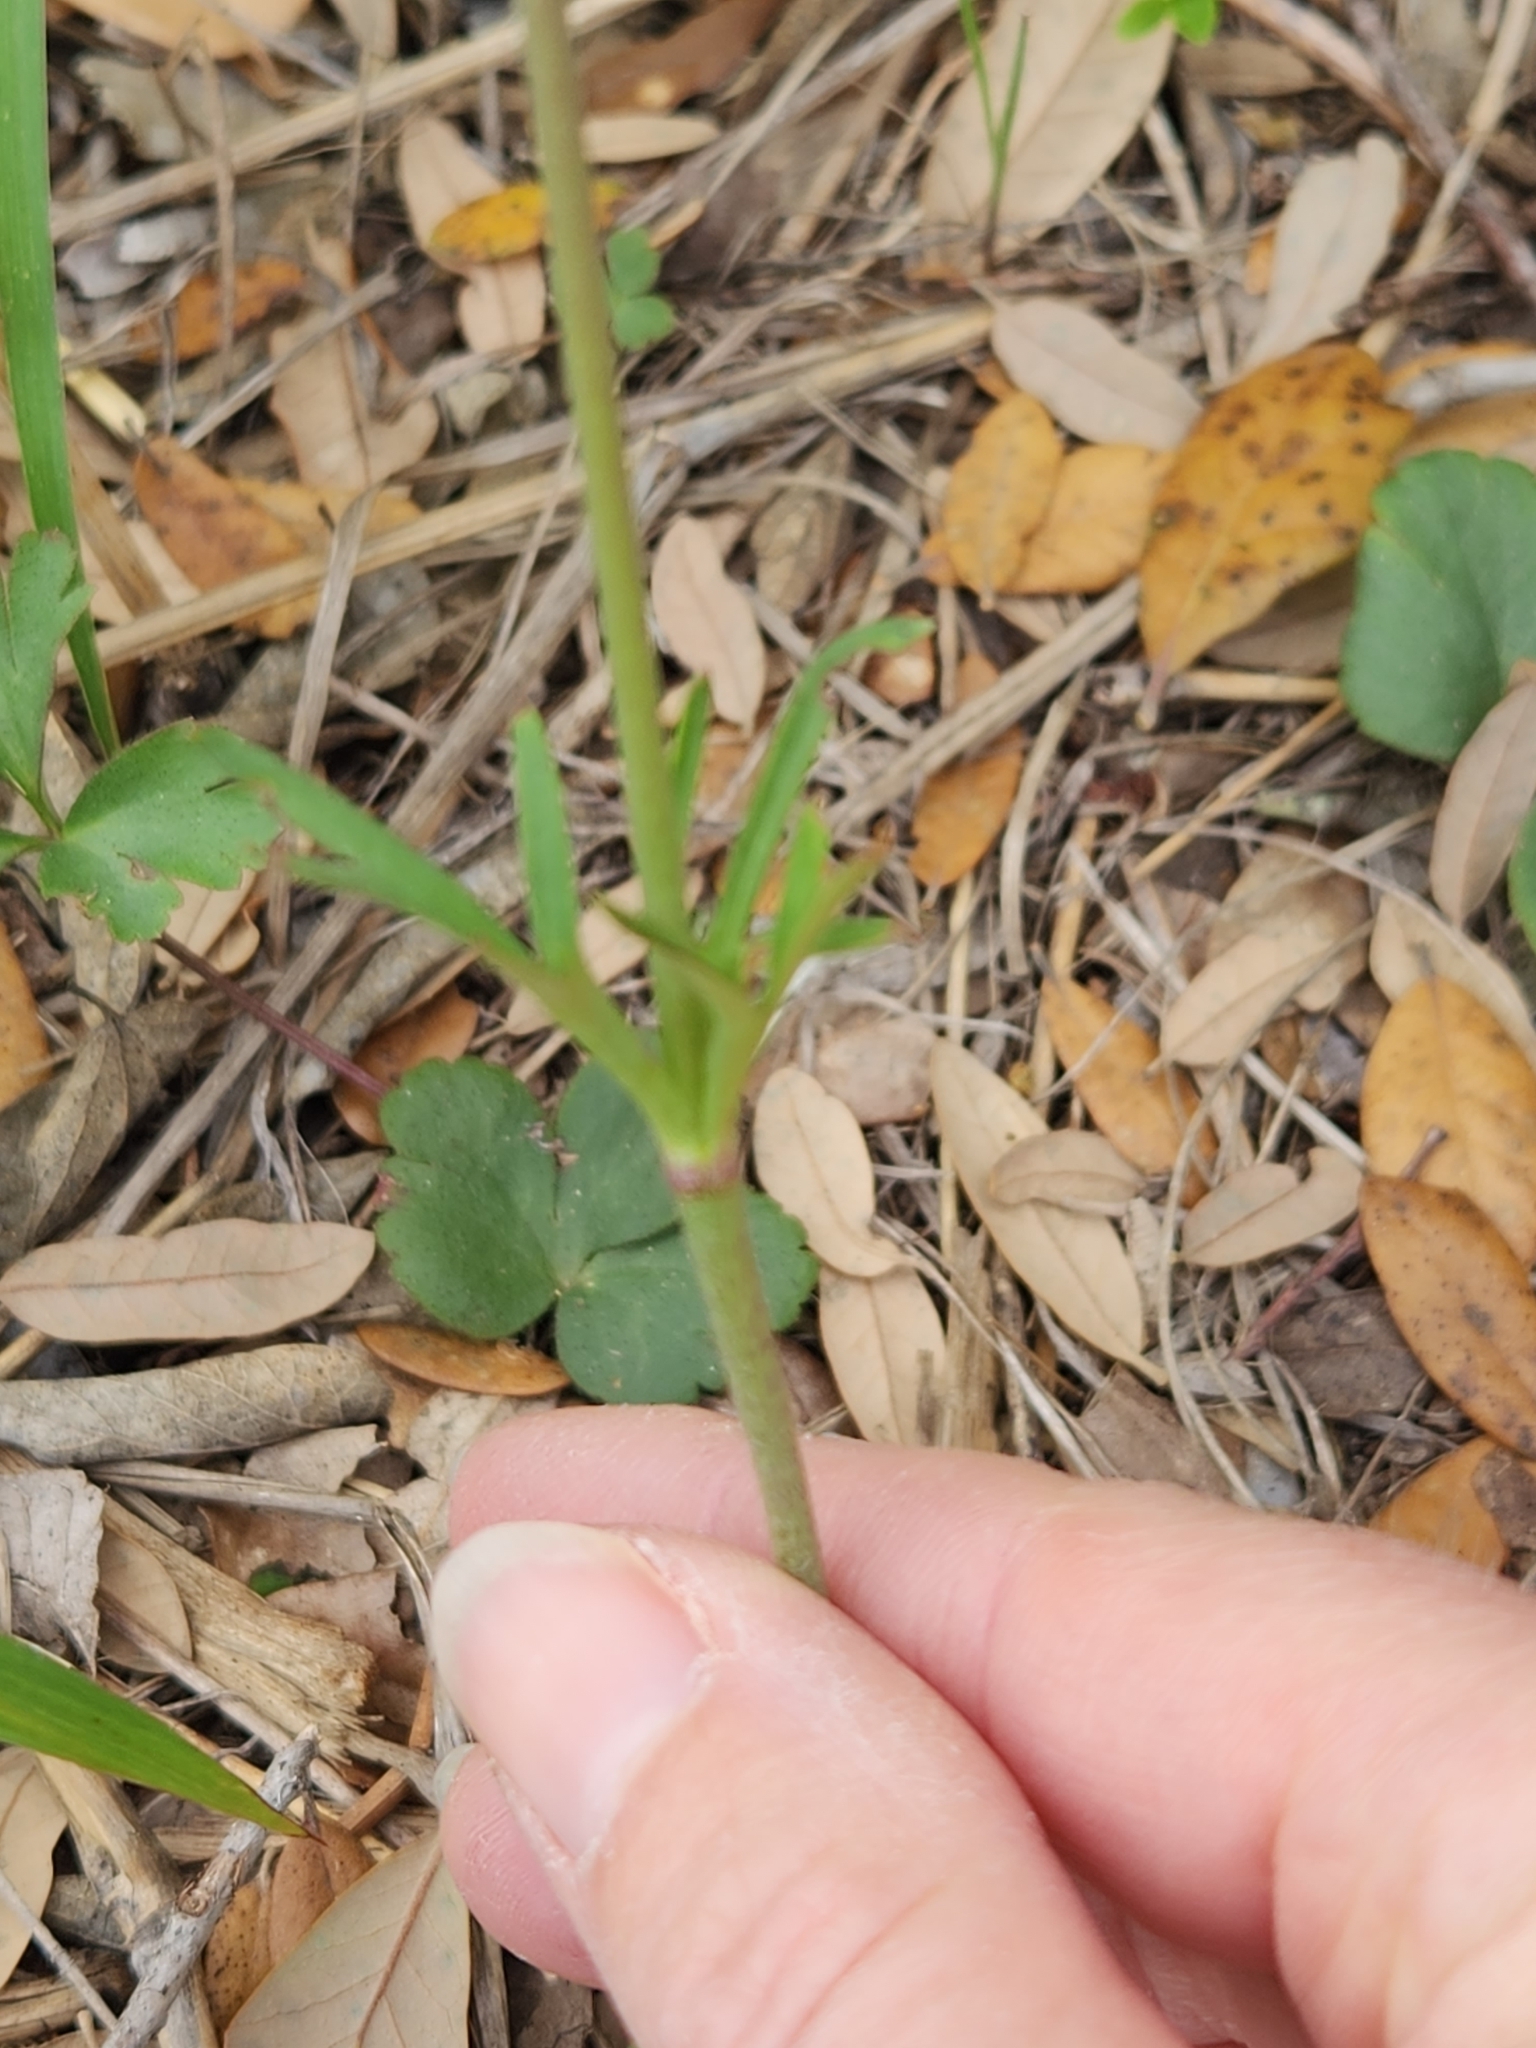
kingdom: Plantae
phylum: Tracheophyta
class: Magnoliopsida
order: Ranunculales
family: Ranunculaceae
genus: Anemone
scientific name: Anemone berlandieri
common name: Ten-petal anemone
